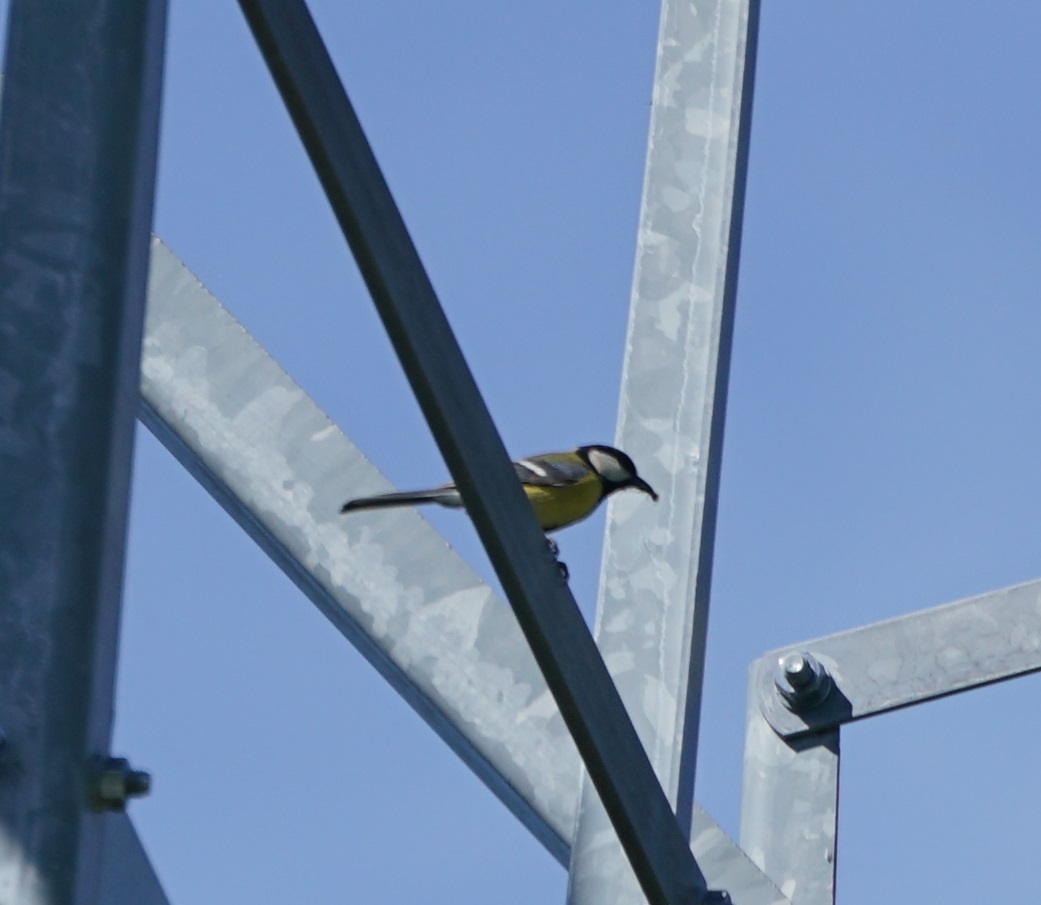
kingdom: Animalia
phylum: Chordata
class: Aves
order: Passeriformes
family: Paridae
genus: Parus
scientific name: Parus major
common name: Great tit
